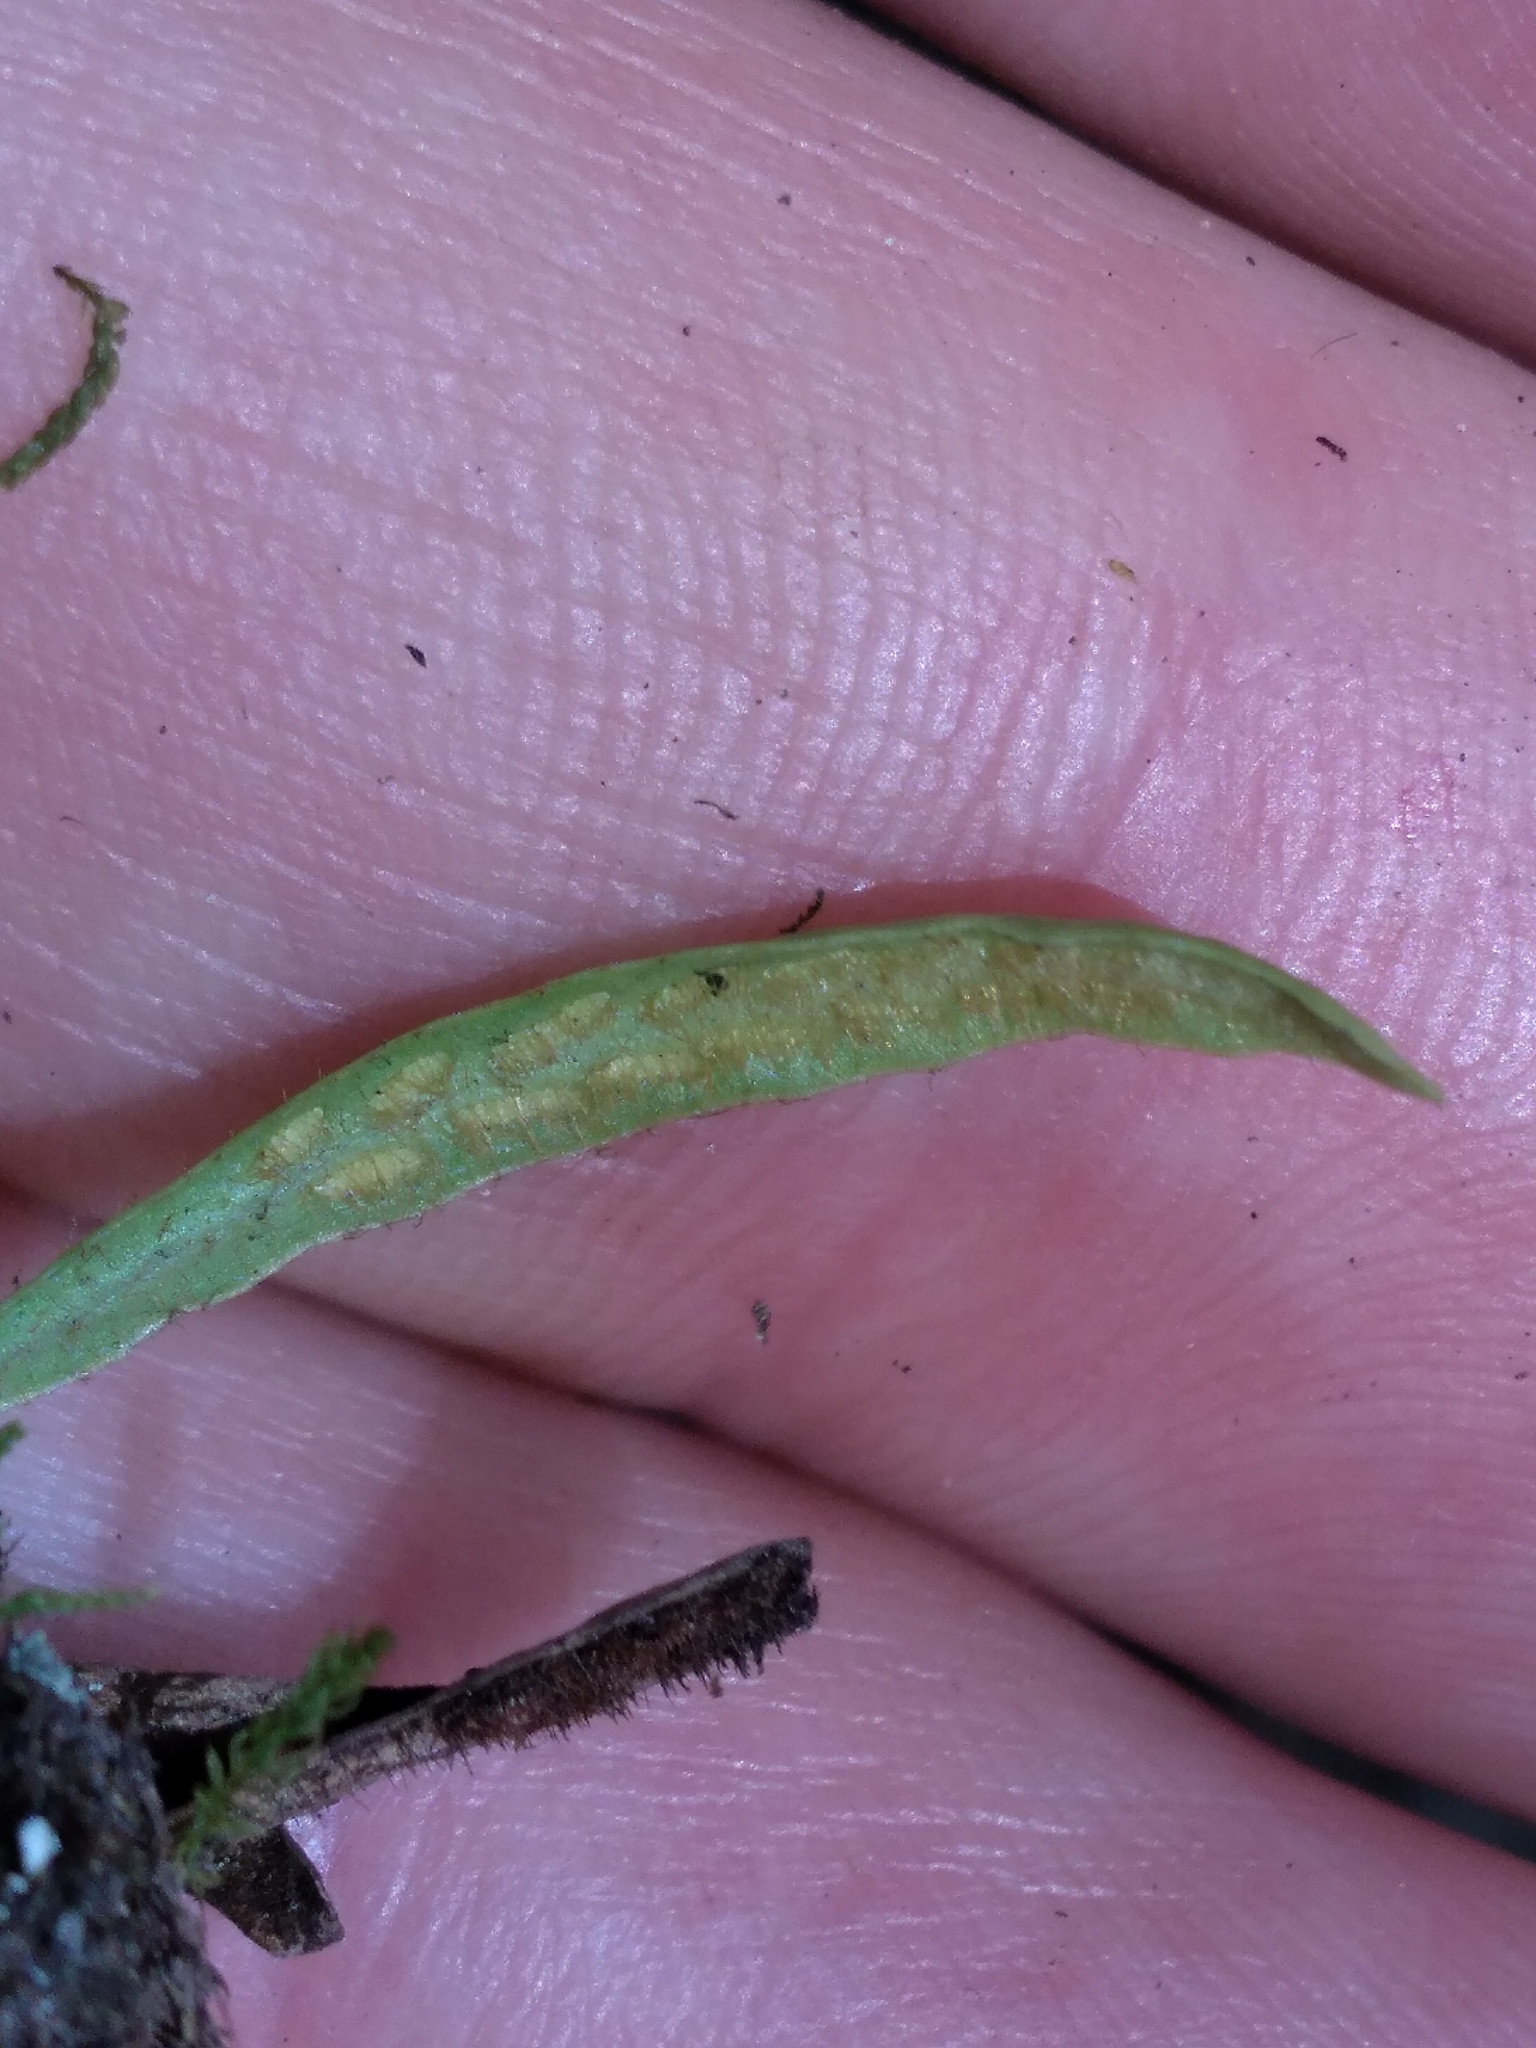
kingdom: Plantae
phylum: Tracheophyta
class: Polypodiopsida
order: Polypodiales
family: Polypodiaceae
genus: Notogrammitis
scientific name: Notogrammitis ciliata
